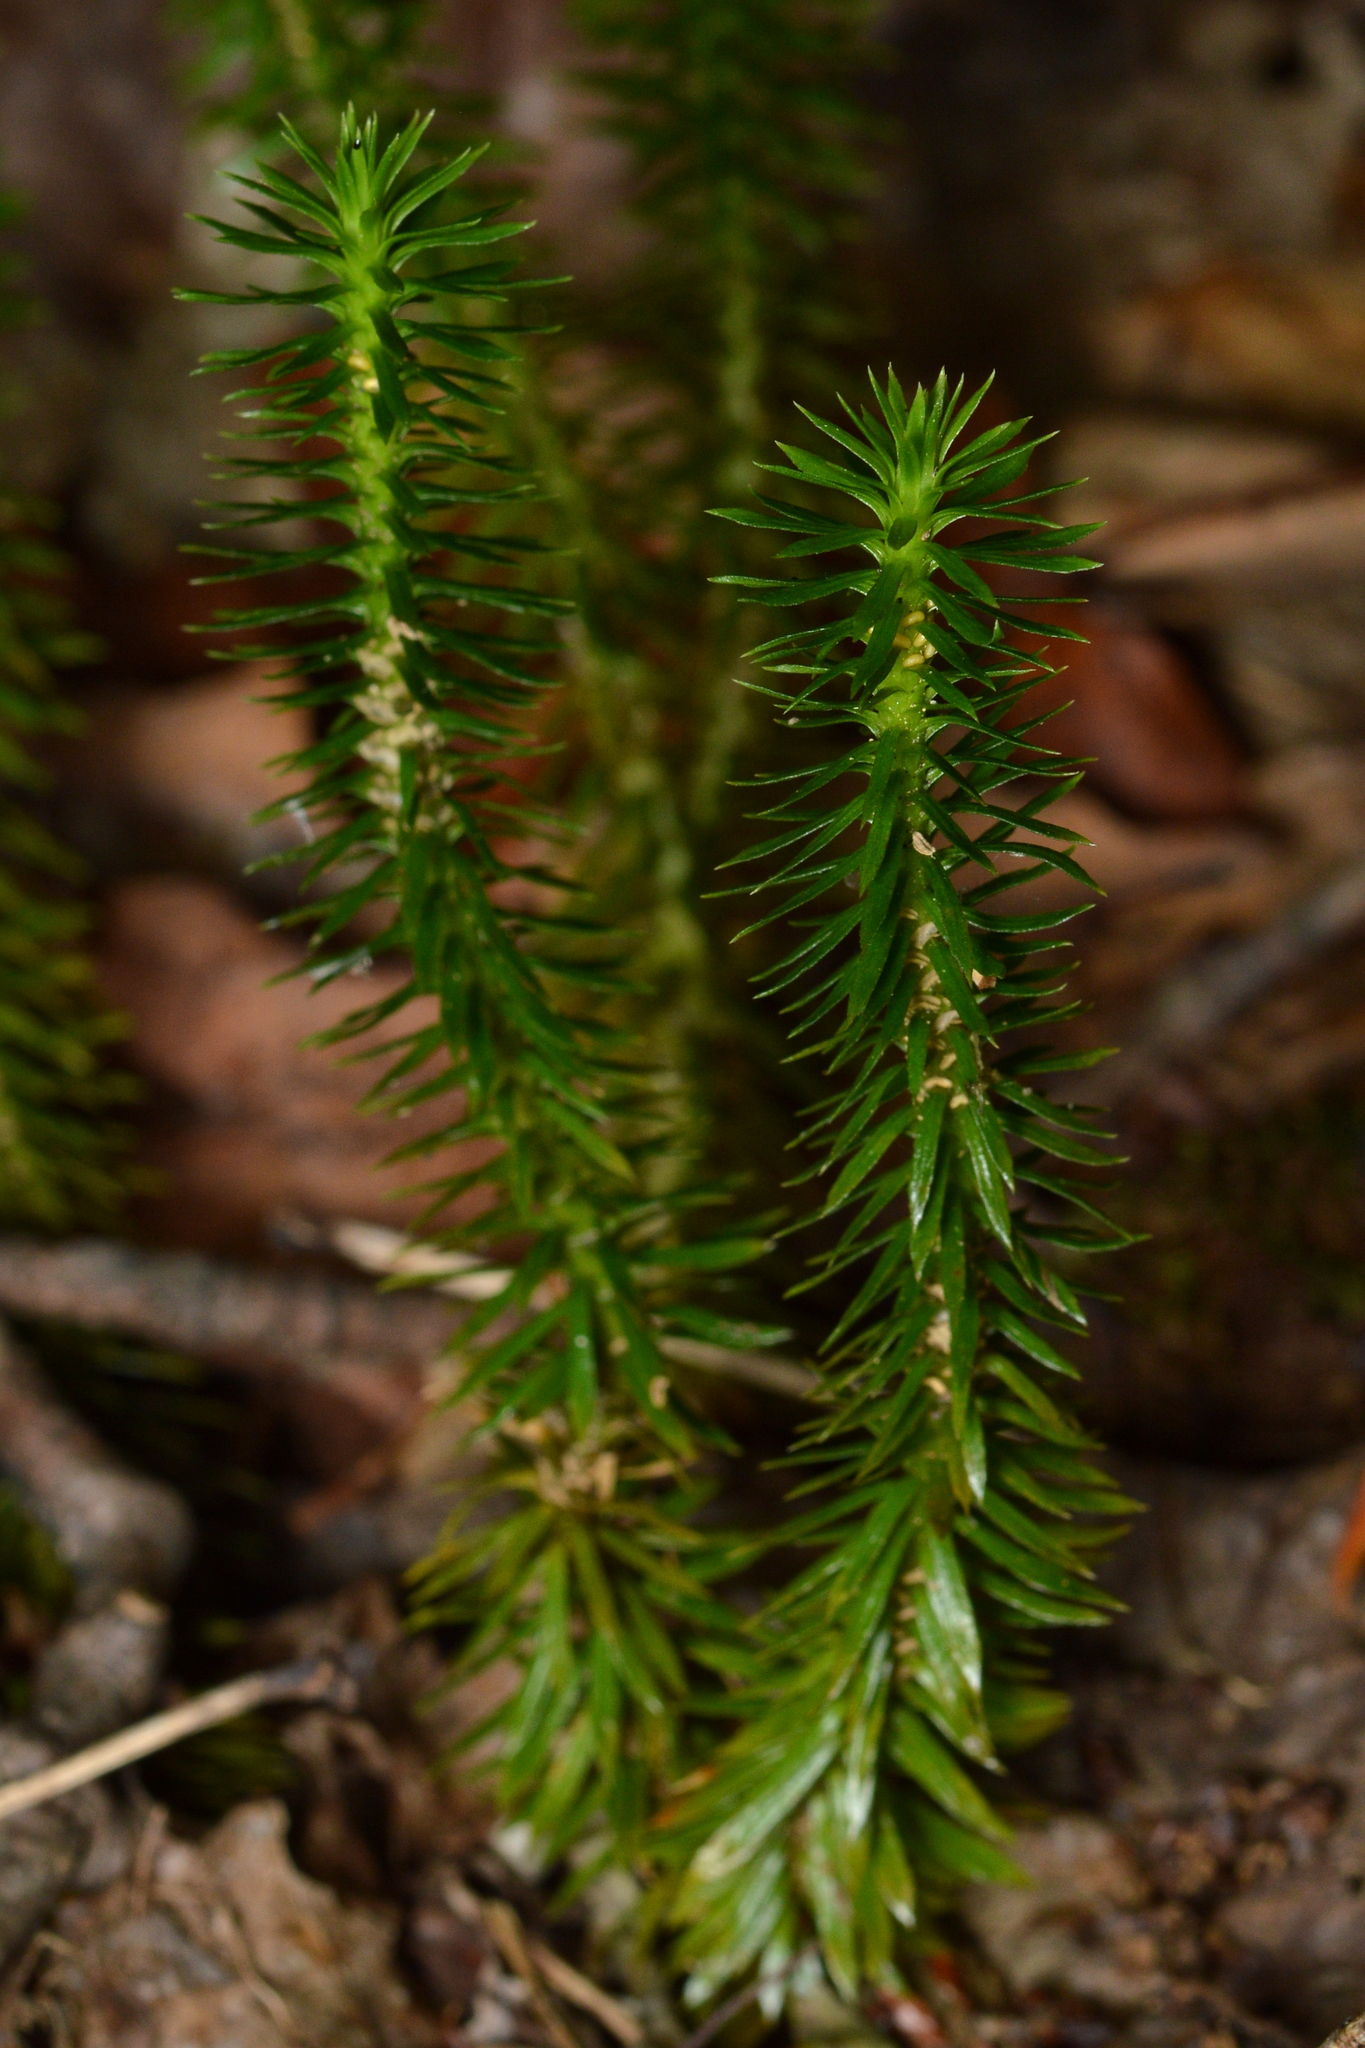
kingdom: Plantae
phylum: Tracheophyta
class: Lycopodiopsida
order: Lycopodiales
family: Lycopodiaceae
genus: Huperzia
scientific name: Huperzia lucidula
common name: Shining clubmoss
